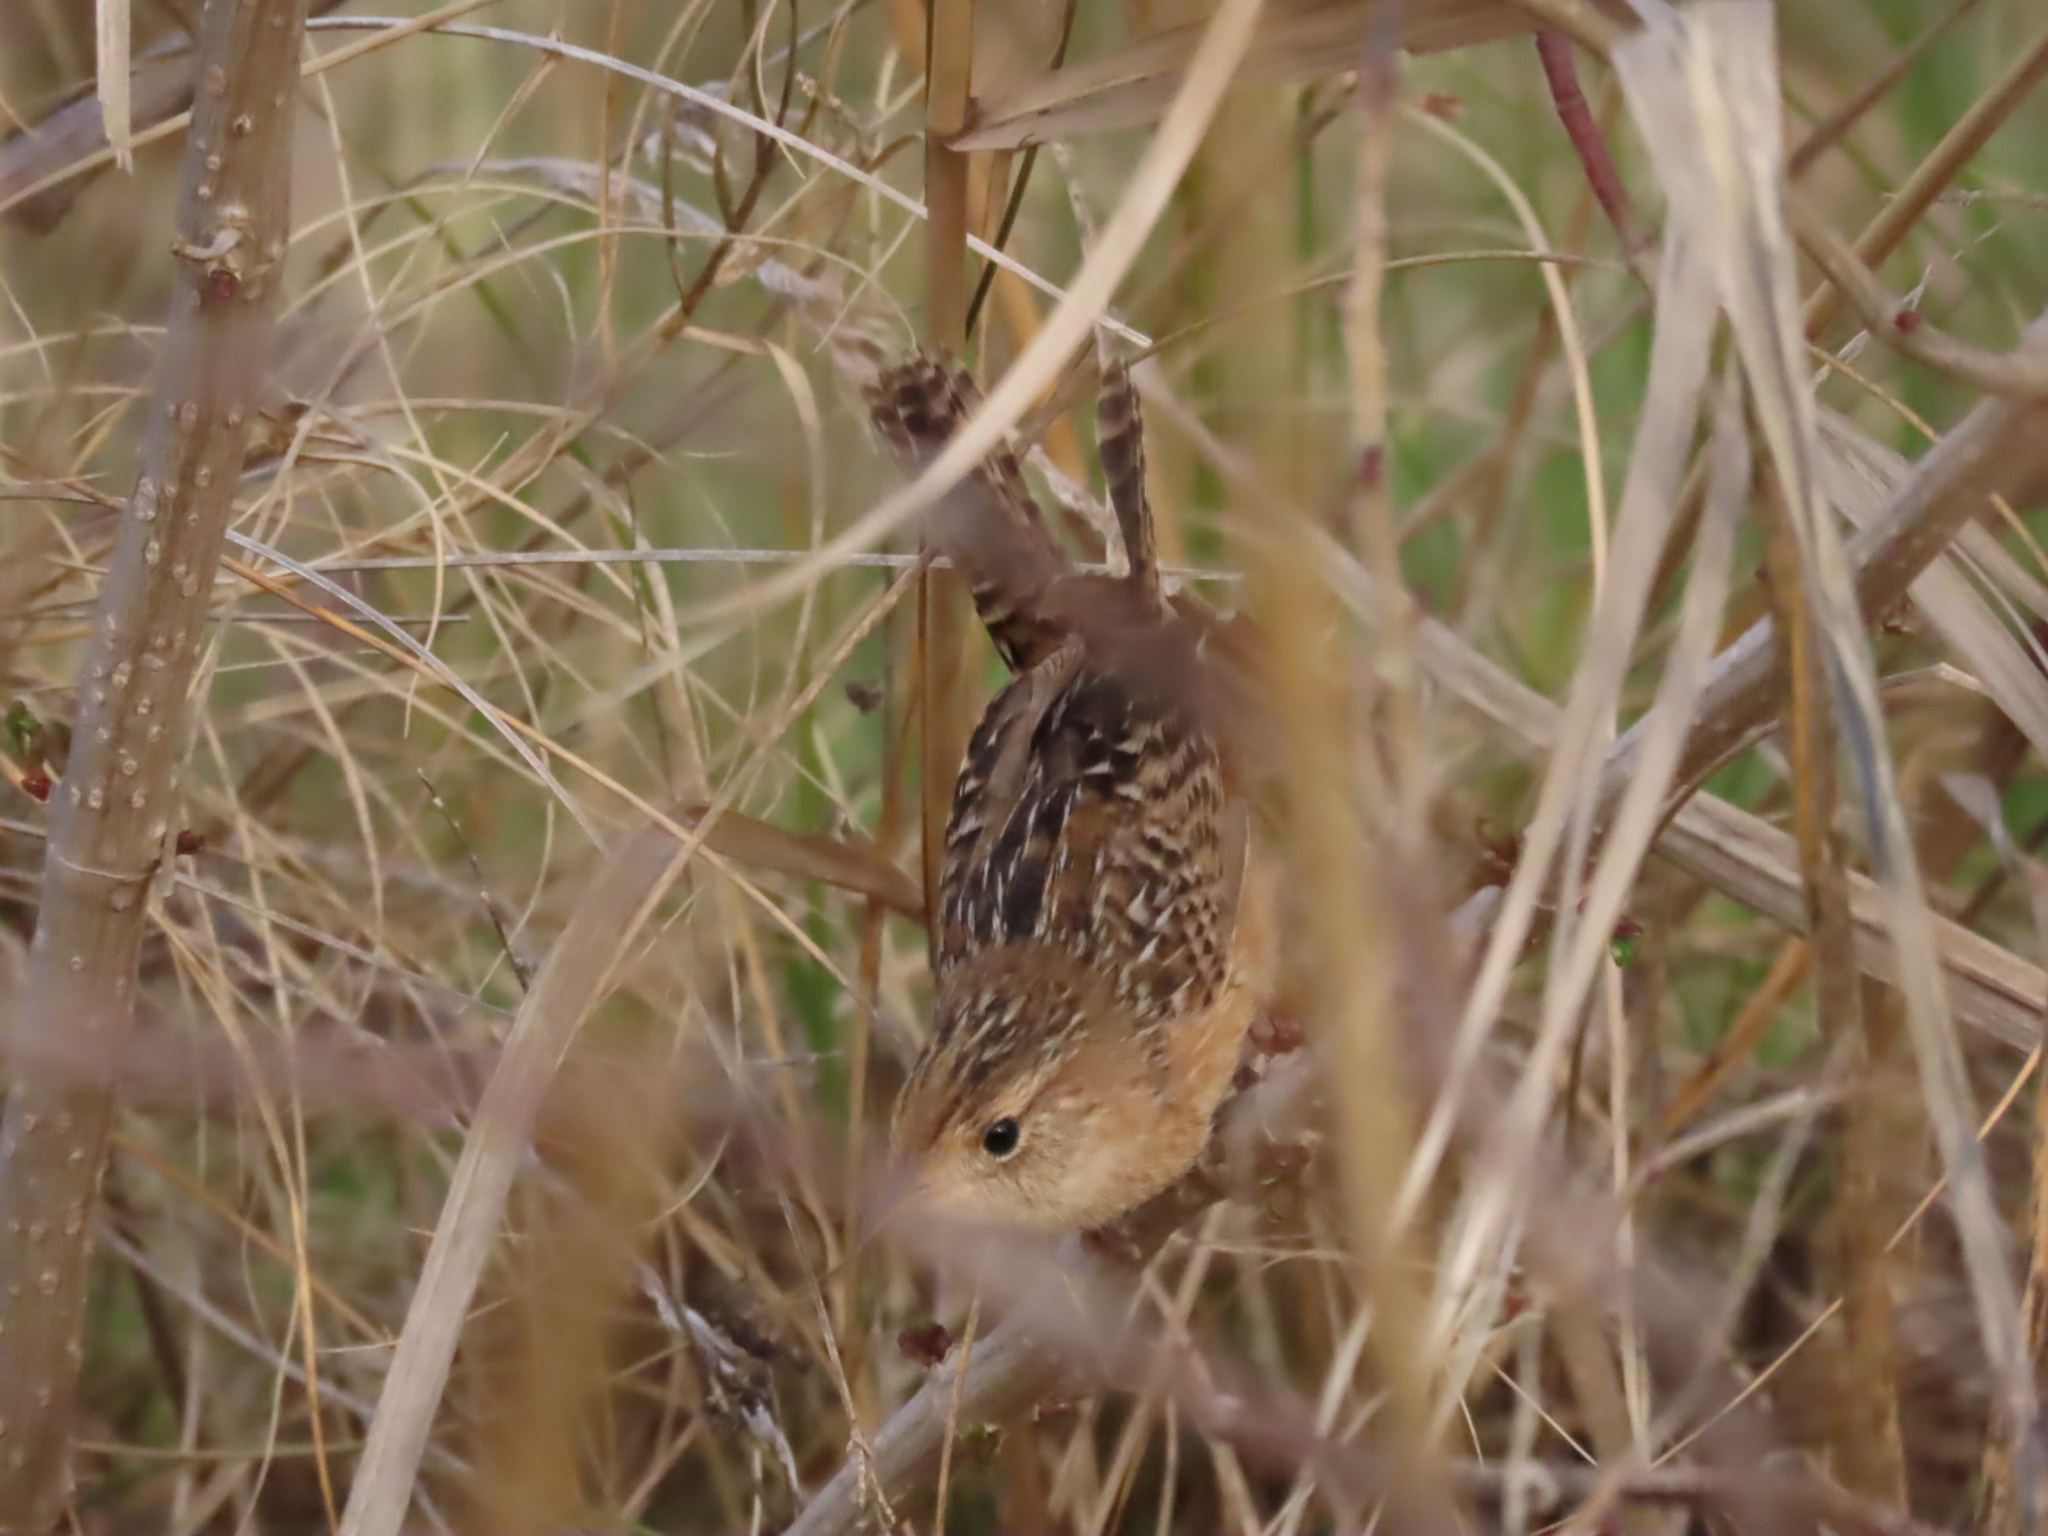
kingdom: Animalia
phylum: Chordata
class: Aves
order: Passeriformes
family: Troglodytidae
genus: Cistothorus
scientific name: Cistothorus platensis
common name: Sedge wren
